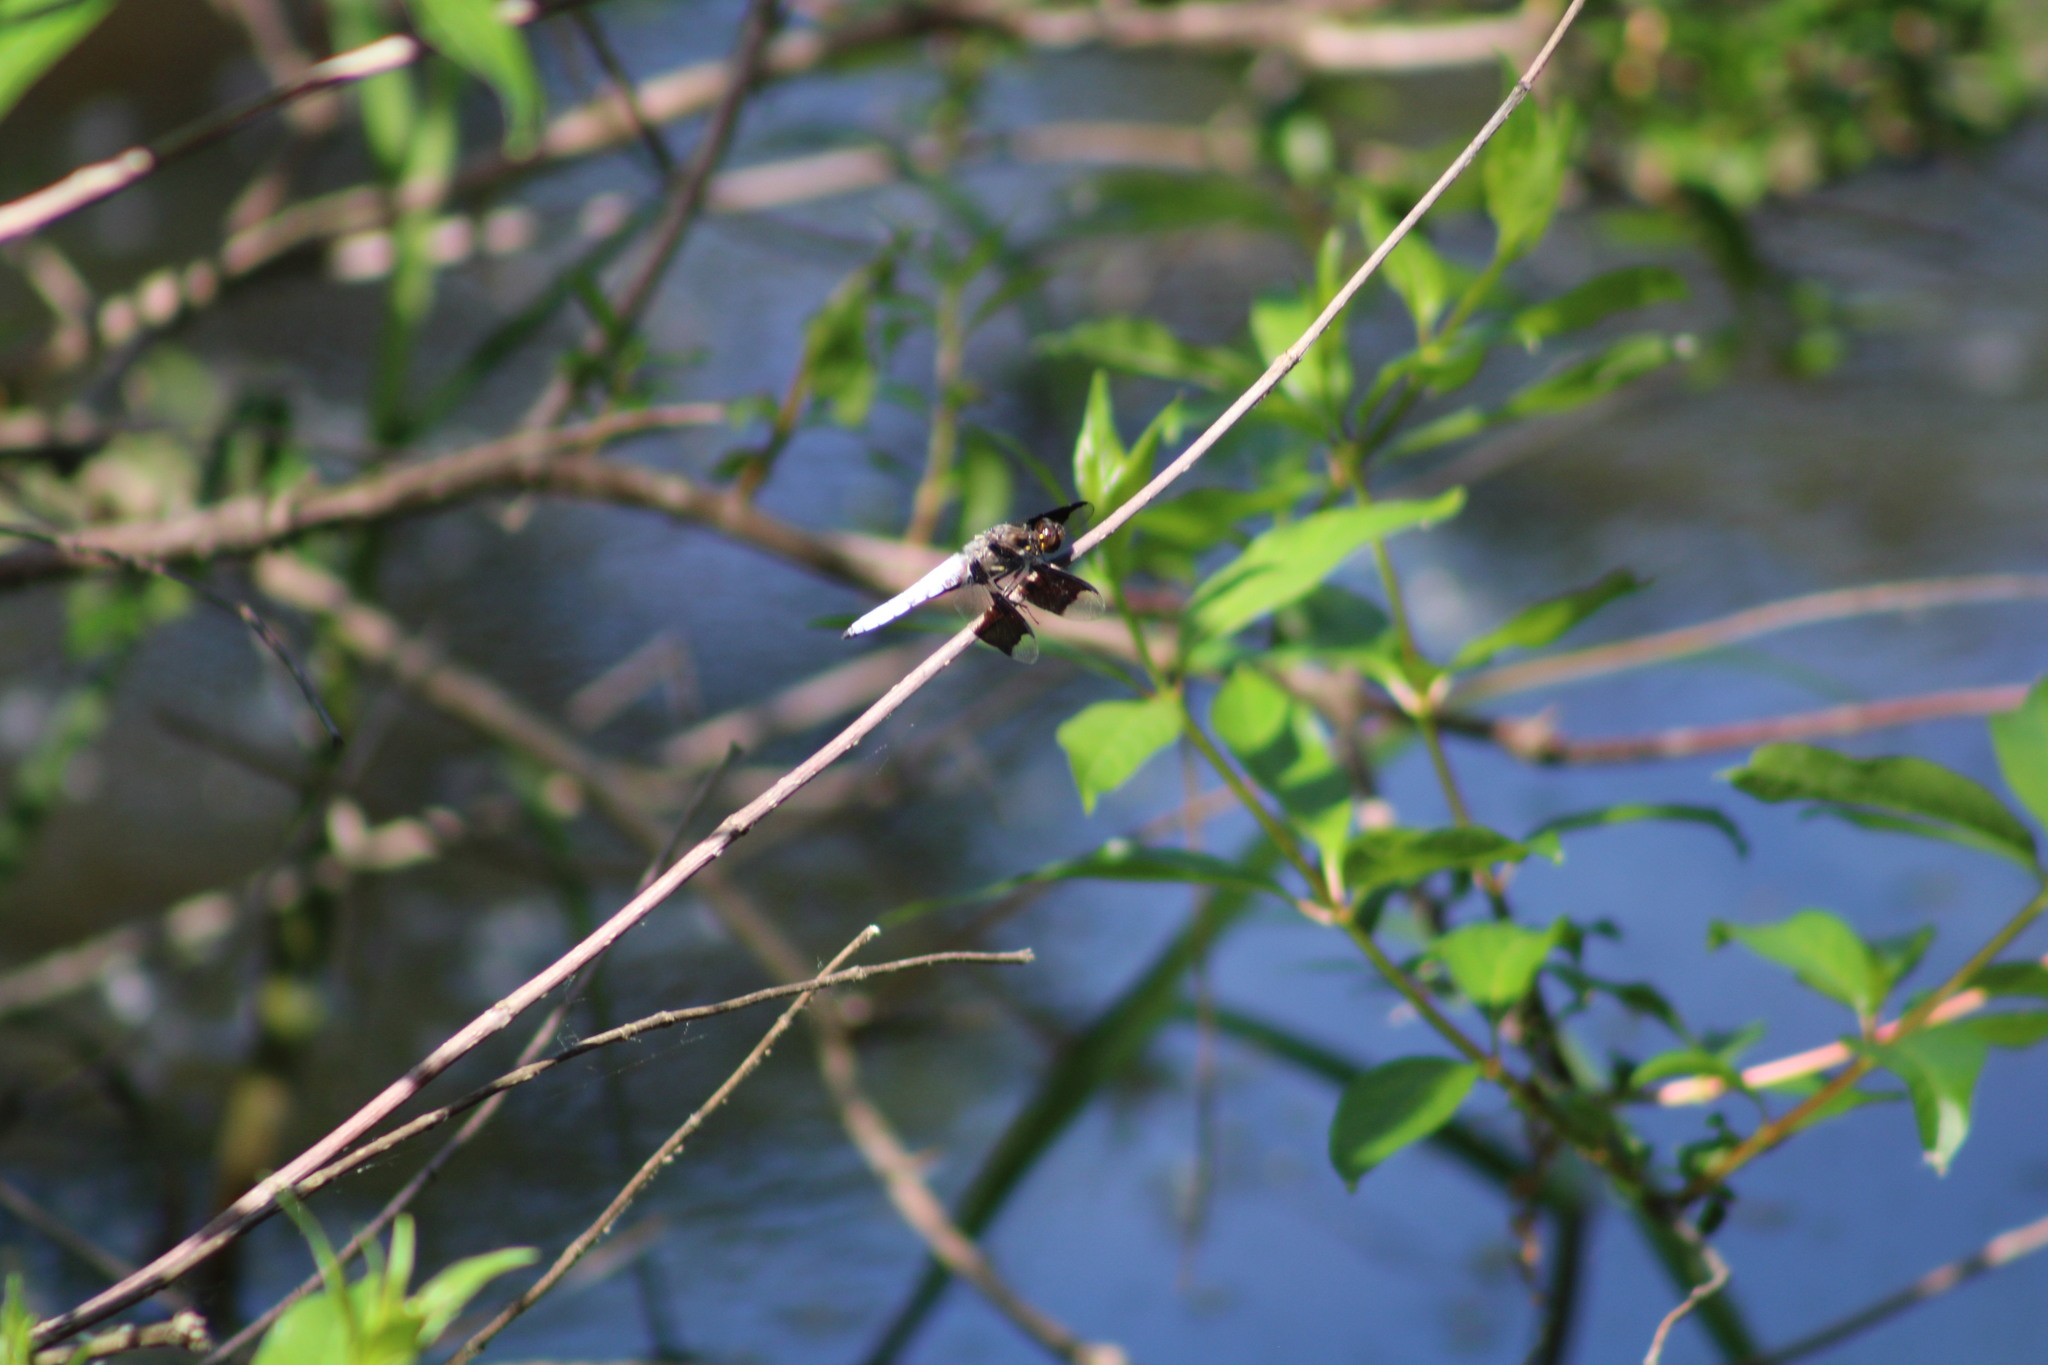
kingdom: Animalia
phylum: Arthropoda
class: Insecta
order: Odonata
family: Libellulidae
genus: Plathemis
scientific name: Plathemis lydia
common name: Common whitetail
